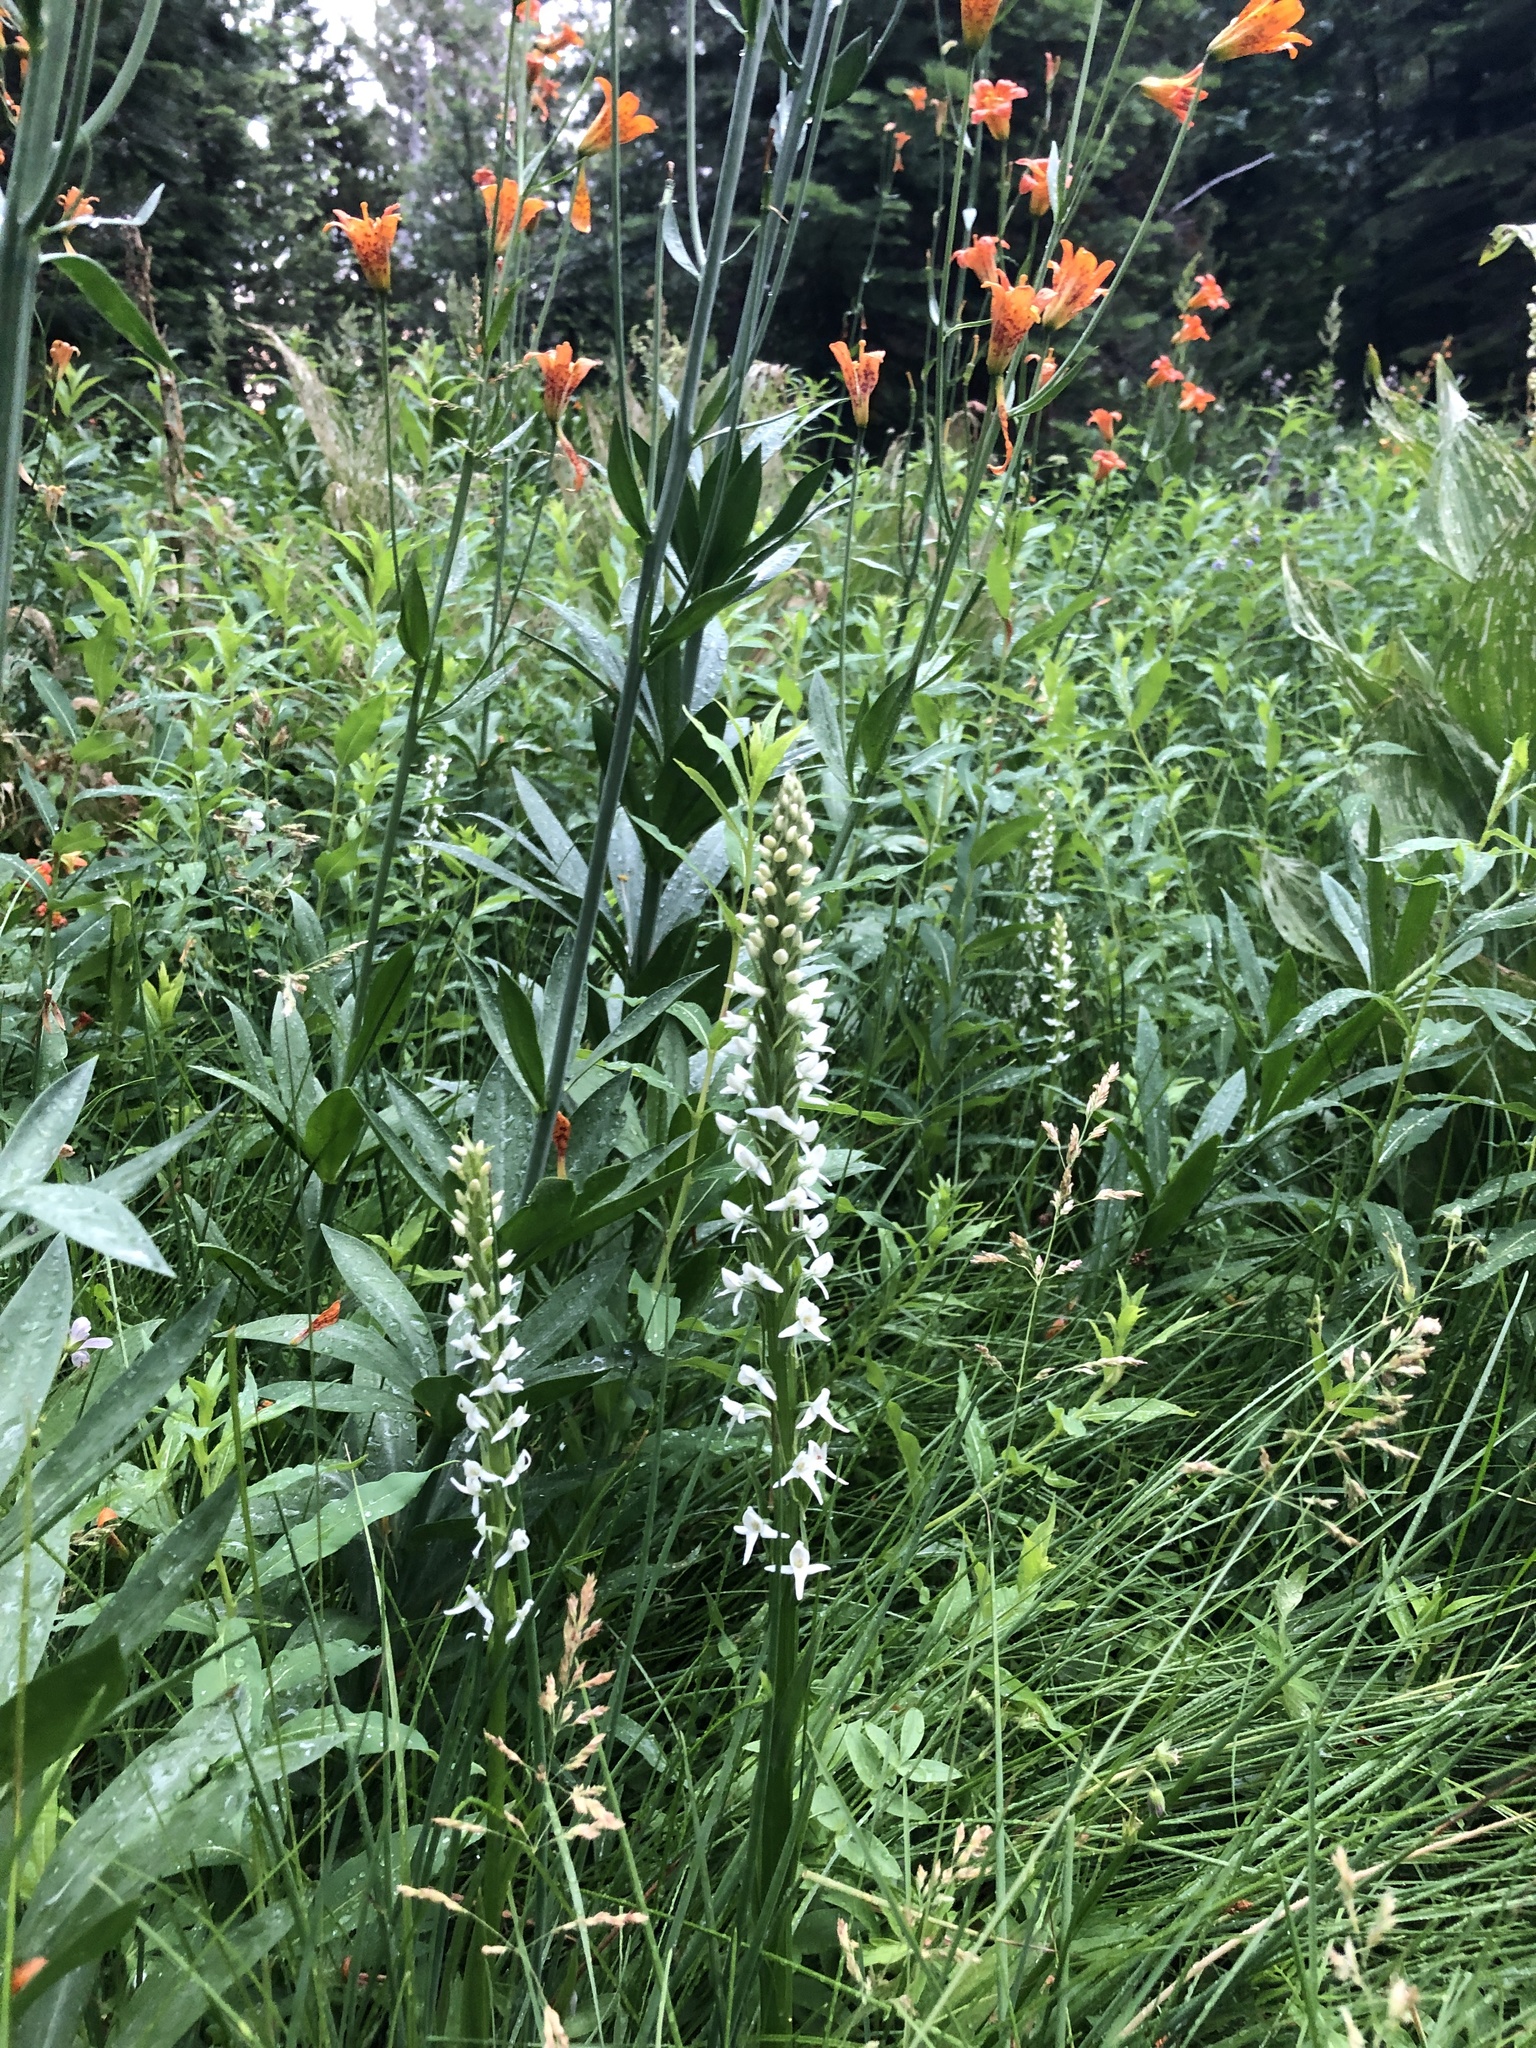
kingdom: Plantae
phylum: Tracheophyta
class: Liliopsida
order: Liliales
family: Liliaceae
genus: Lilium
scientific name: Lilium parvum
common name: Alpine lily
